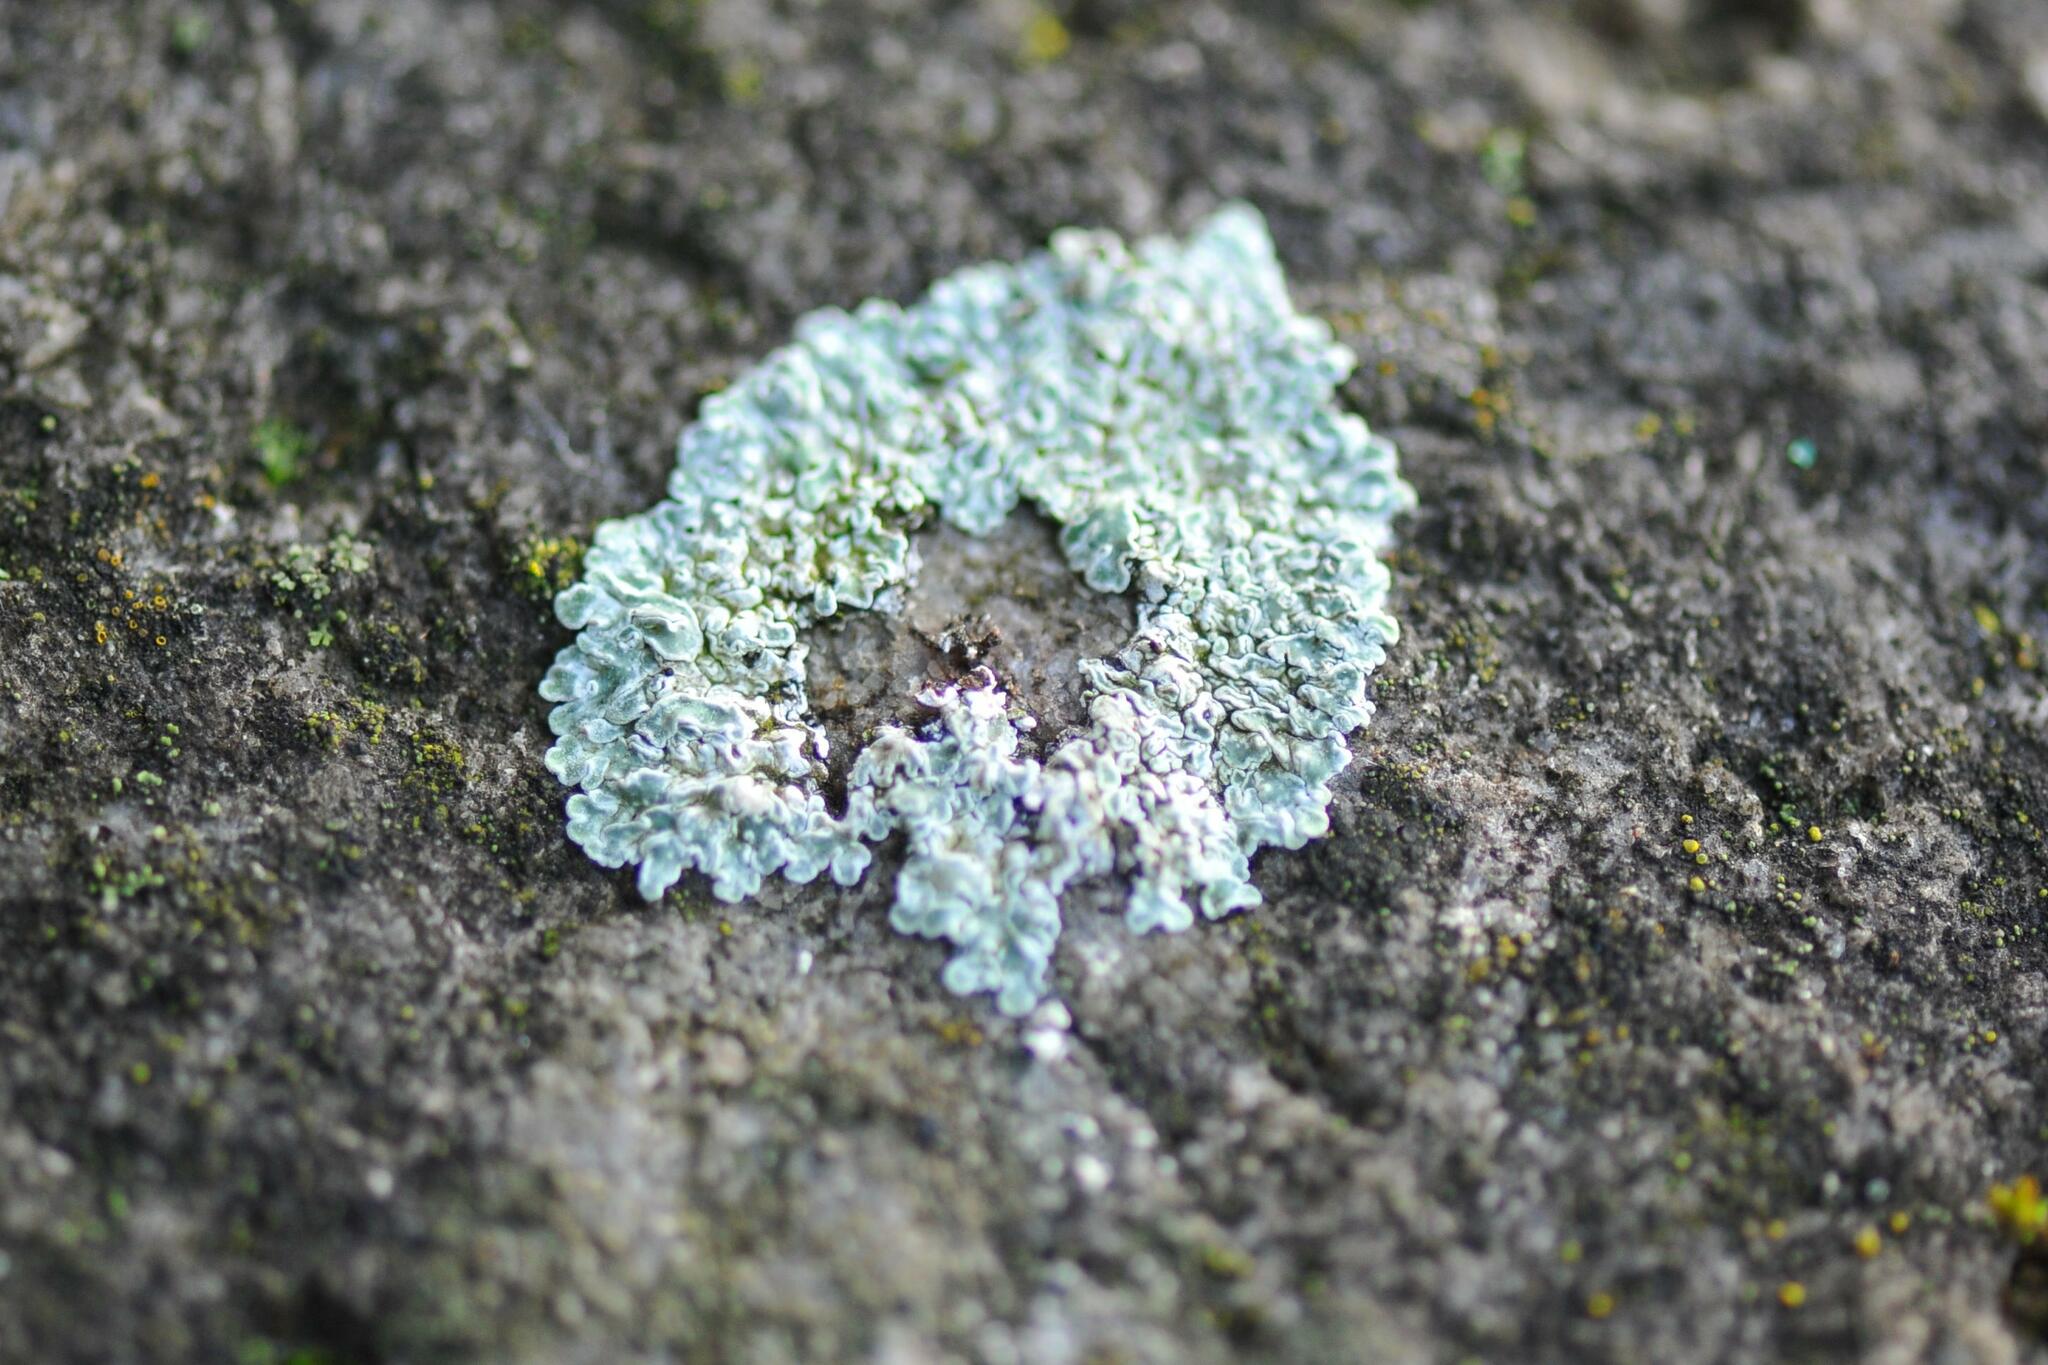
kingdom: Fungi
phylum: Ascomycota
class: Lecanoromycetes
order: Lecanorales
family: Lecanoraceae
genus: Protoparmeliopsis
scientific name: Protoparmeliopsis muralis
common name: Stonewall rim lichen
